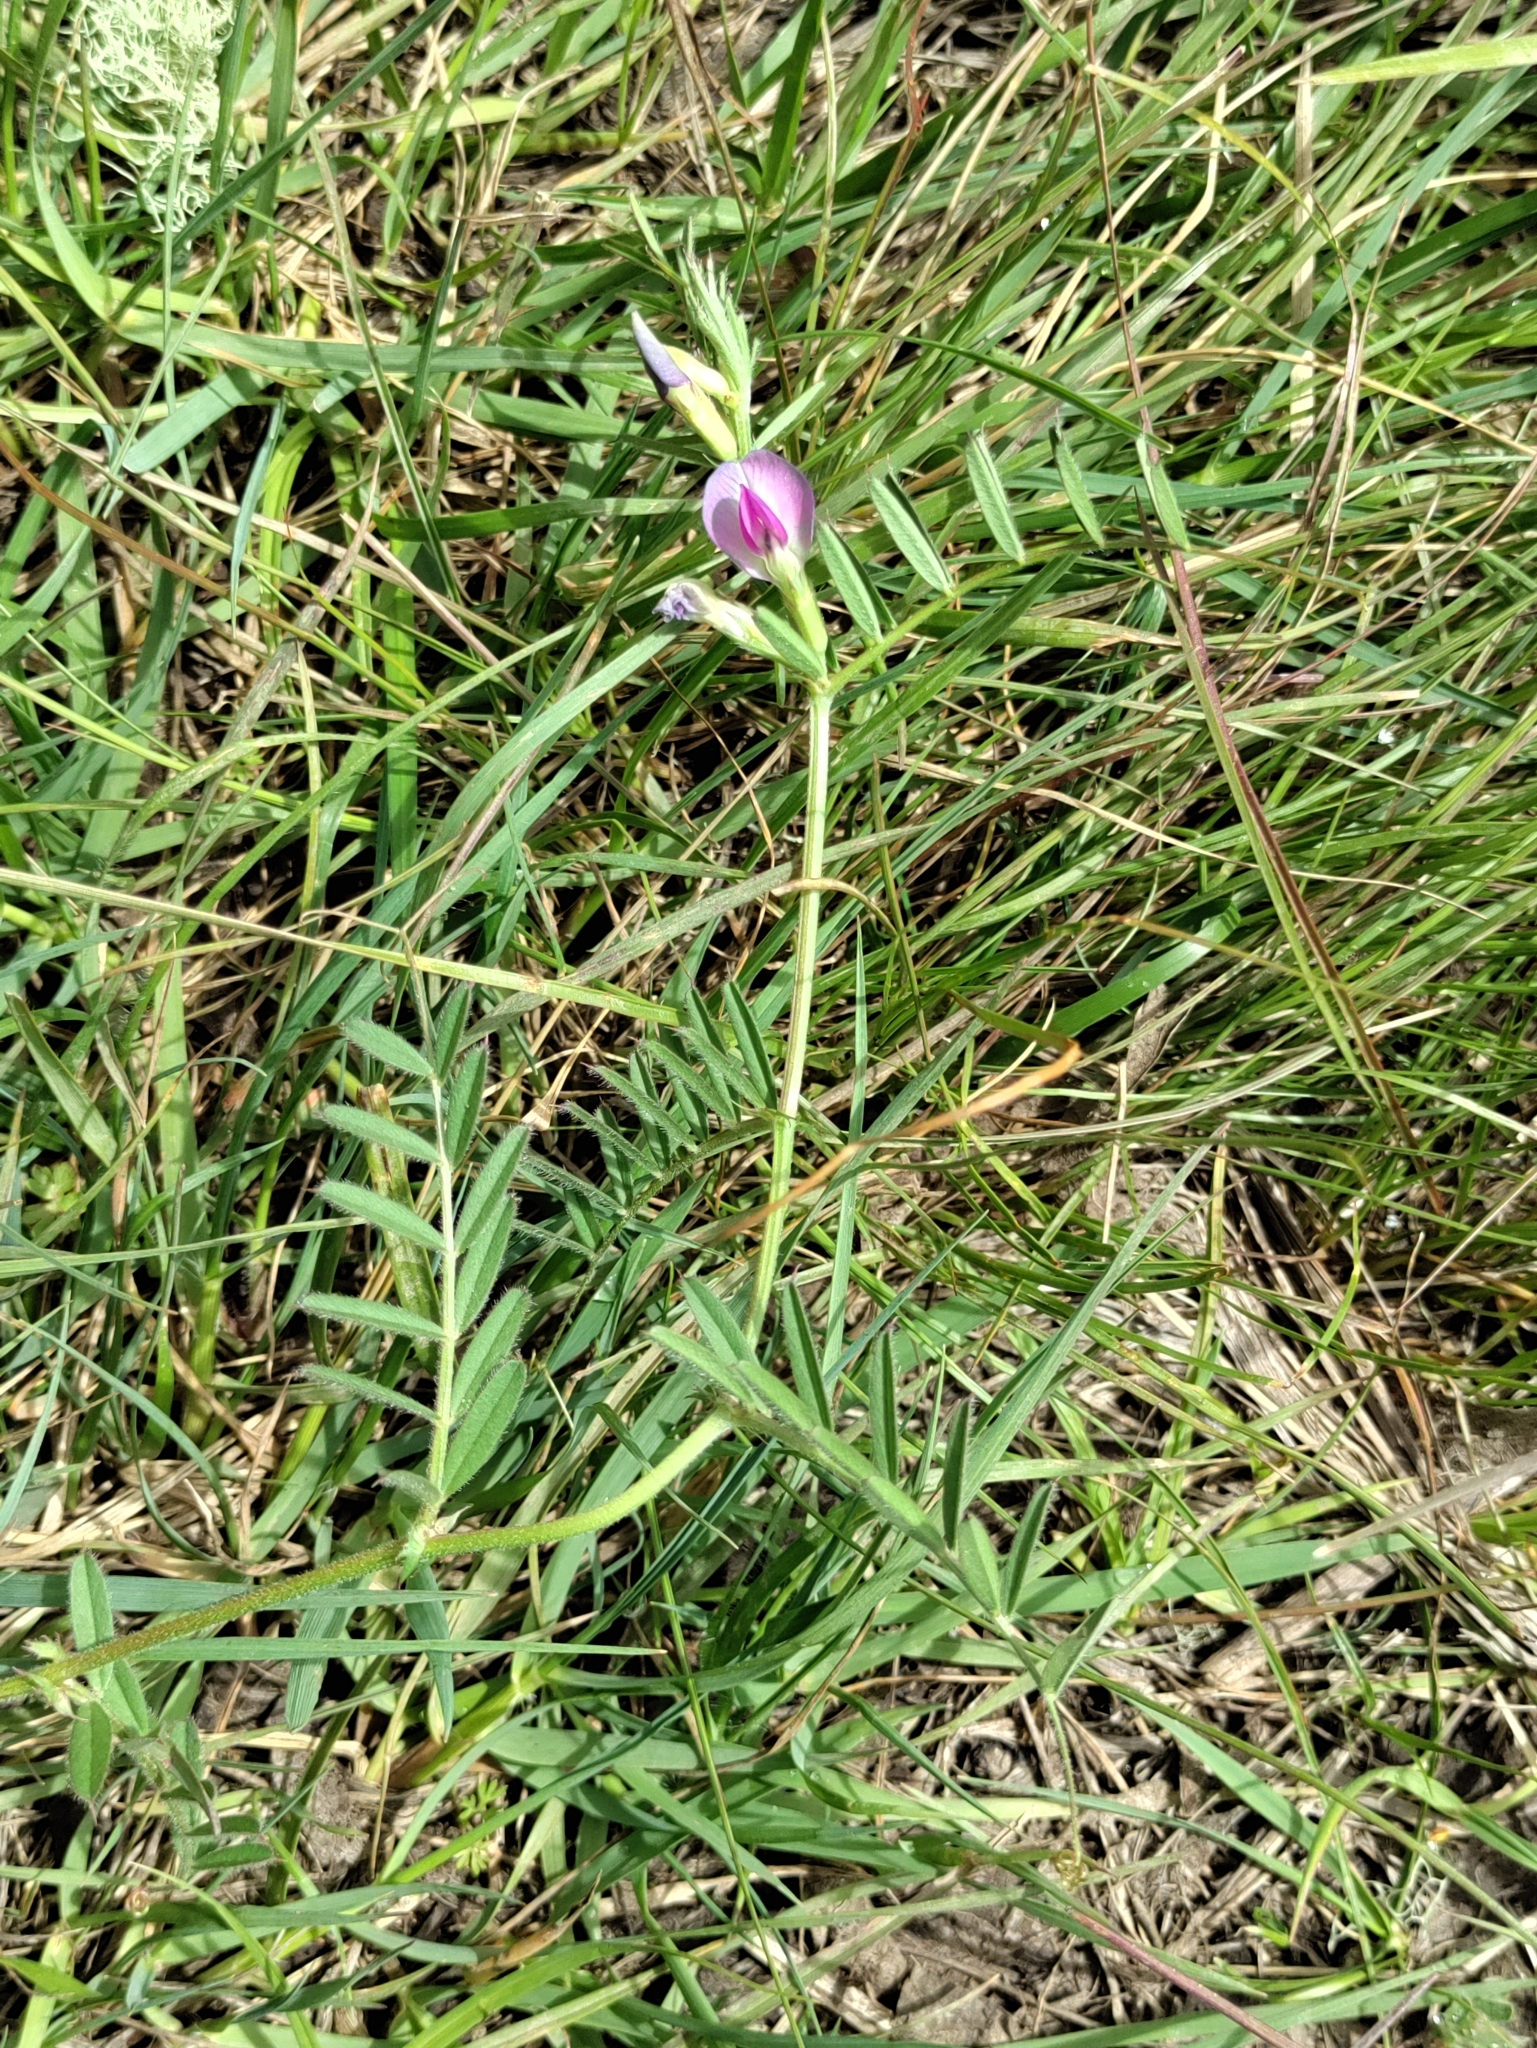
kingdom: Plantae
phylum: Tracheophyta
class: Magnoliopsida
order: Fabales
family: Fabaceae
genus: Vicia
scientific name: Vicia sativa
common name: Garden vetch
